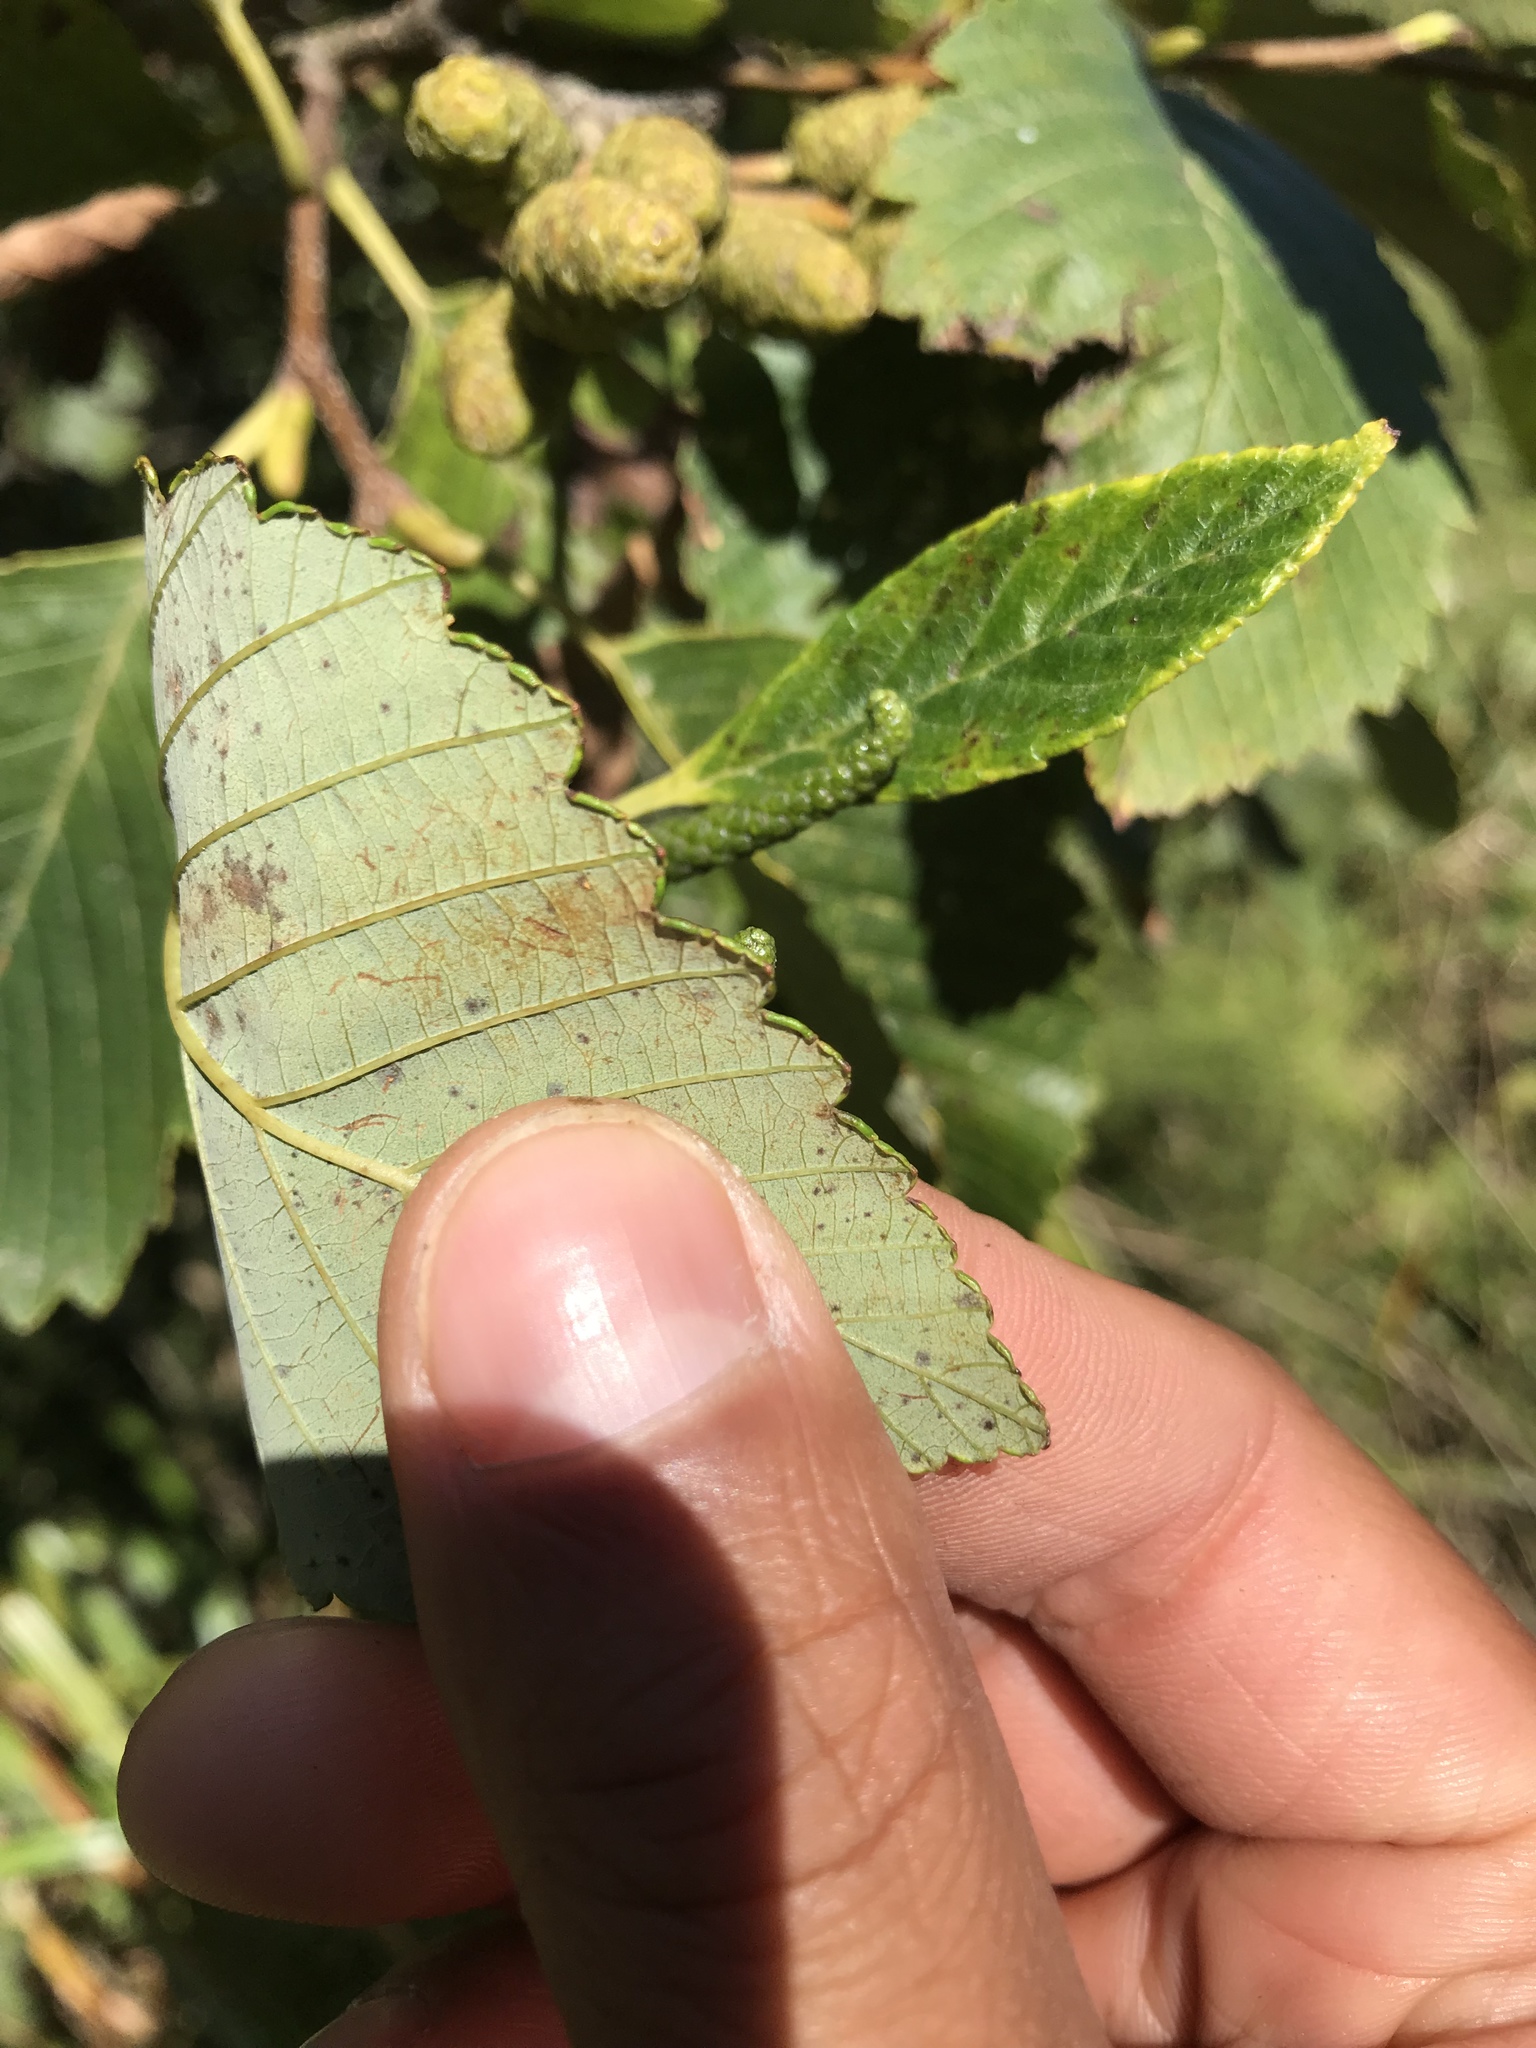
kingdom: Plantae
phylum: Tracheophyta
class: Magnoliopsida
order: Fagales
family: Betulaceae
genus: Alnus
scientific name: Alnus rubra
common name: Red alder
